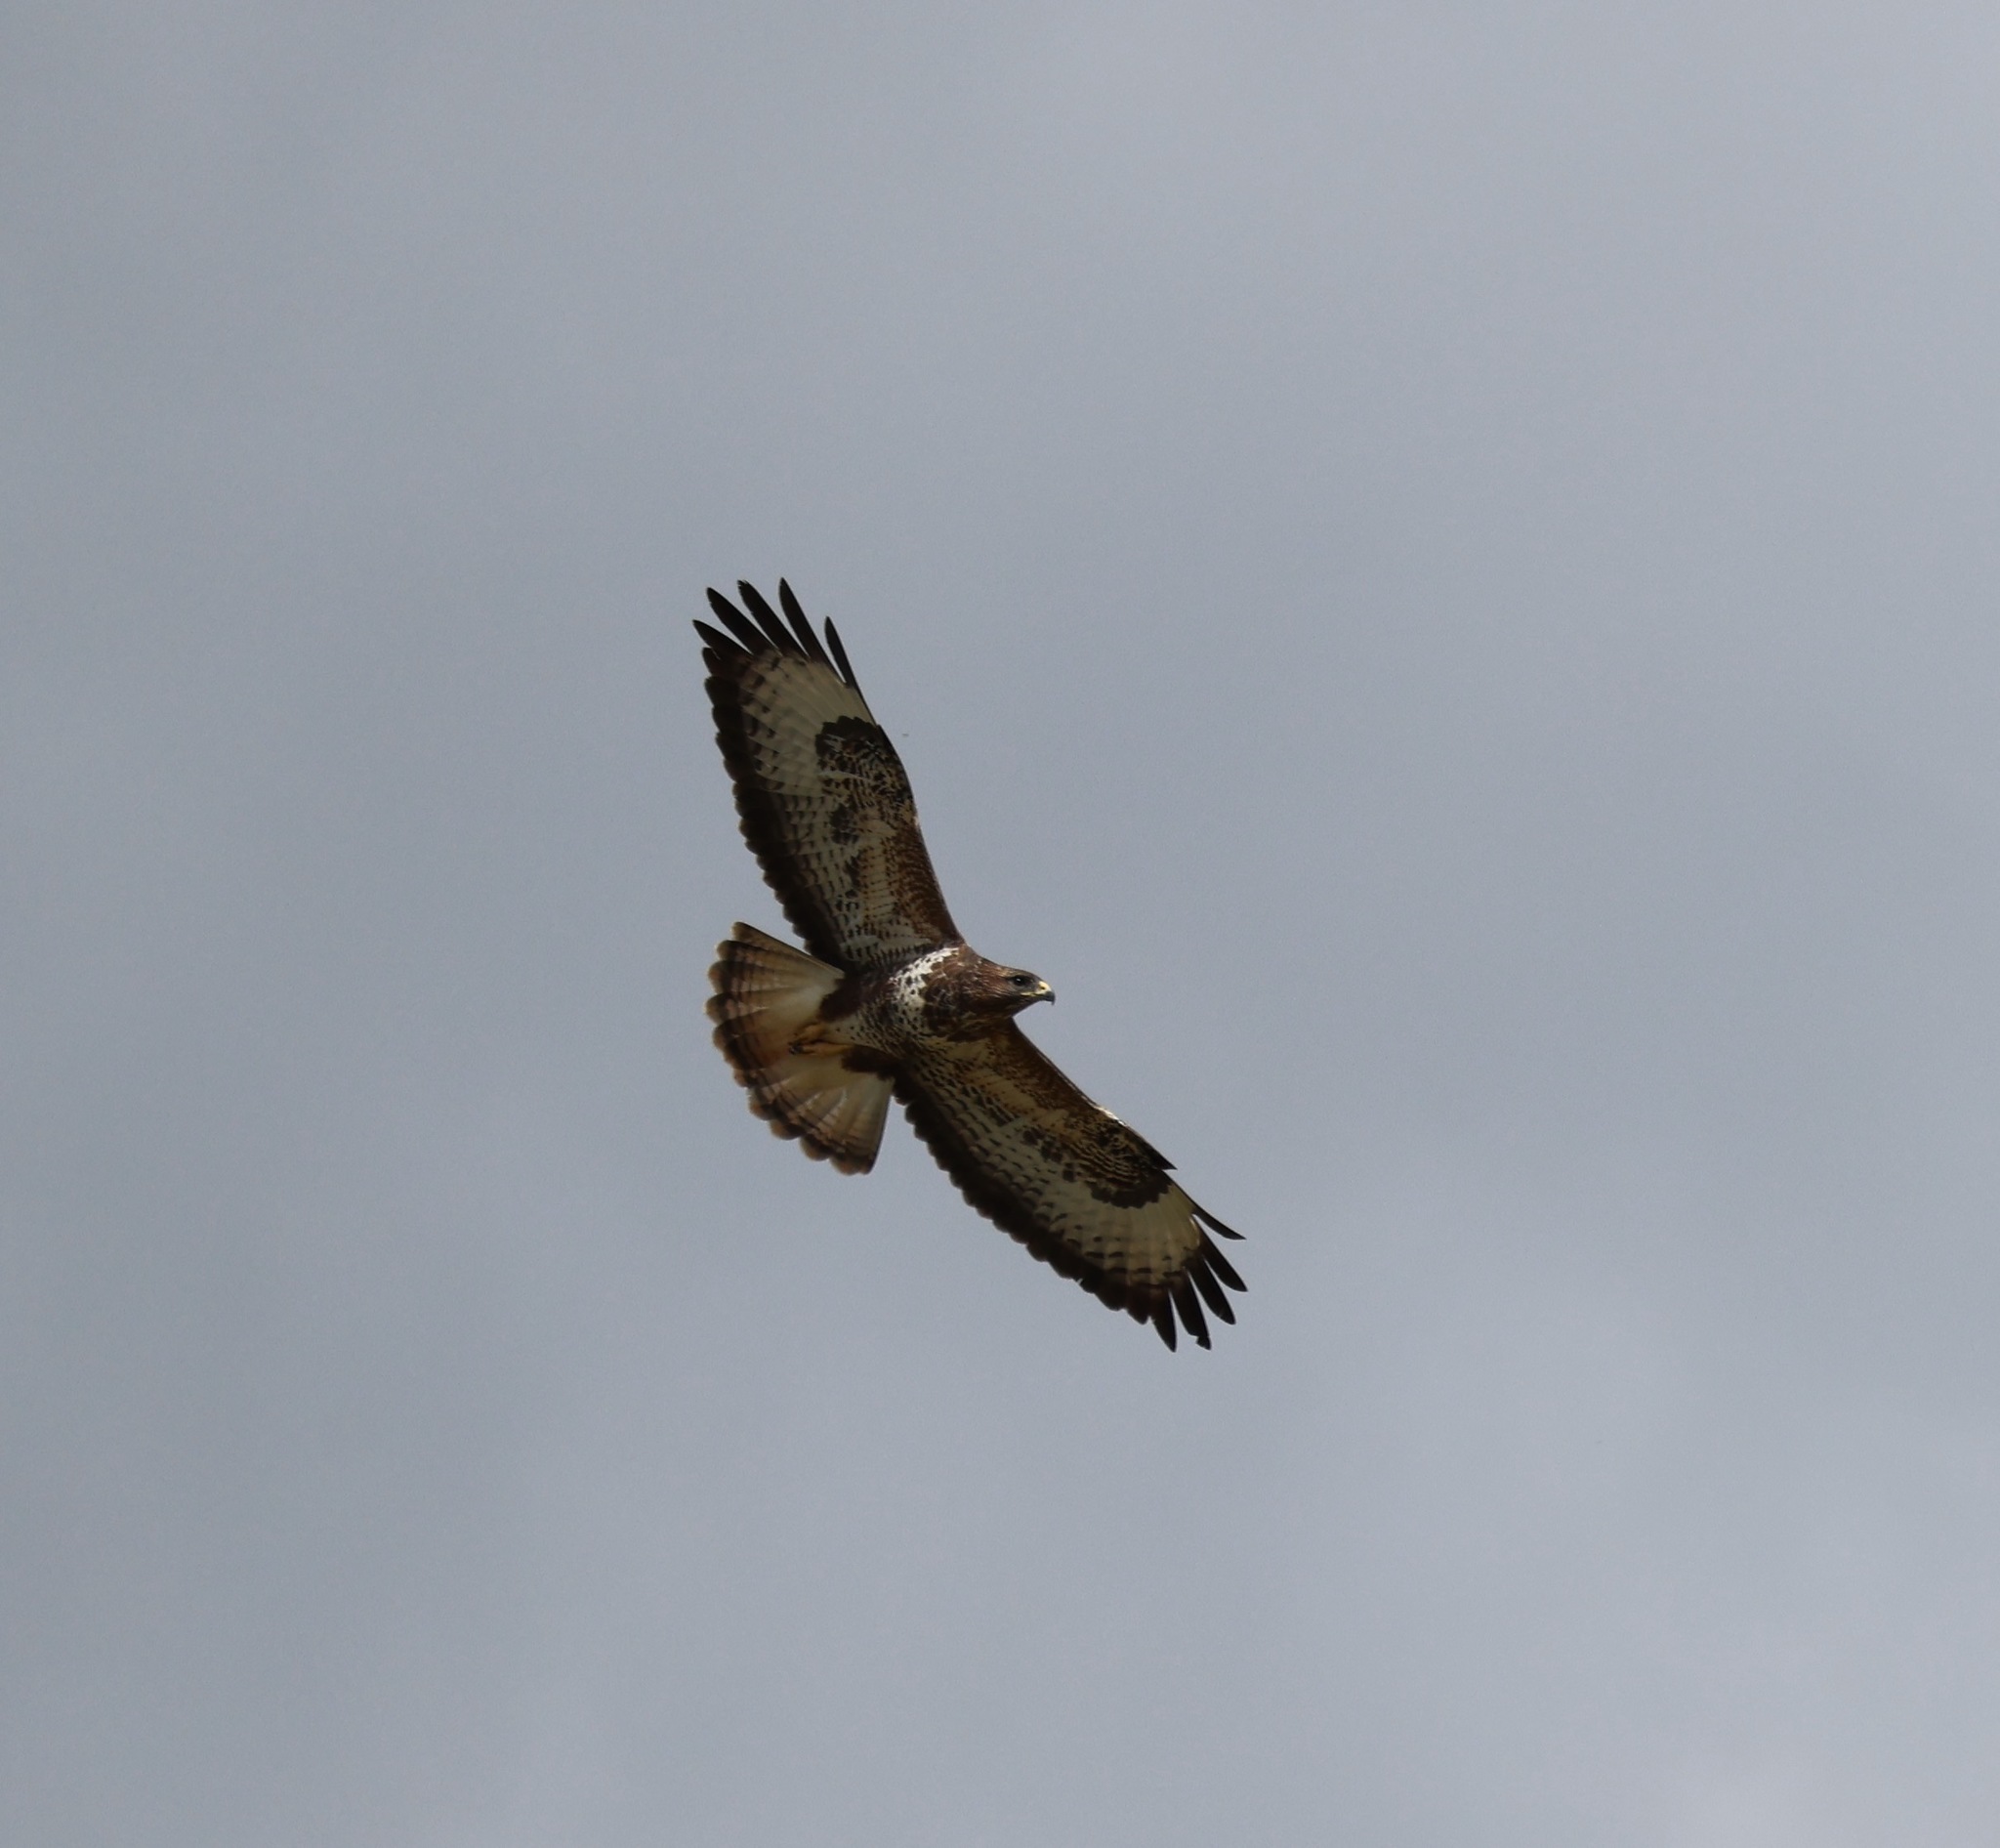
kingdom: Animalia
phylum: Chordata
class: Aves
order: Accipitriformes
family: Accipitridae
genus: Buteo
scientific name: Buteo buteo
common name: Common buzzard
